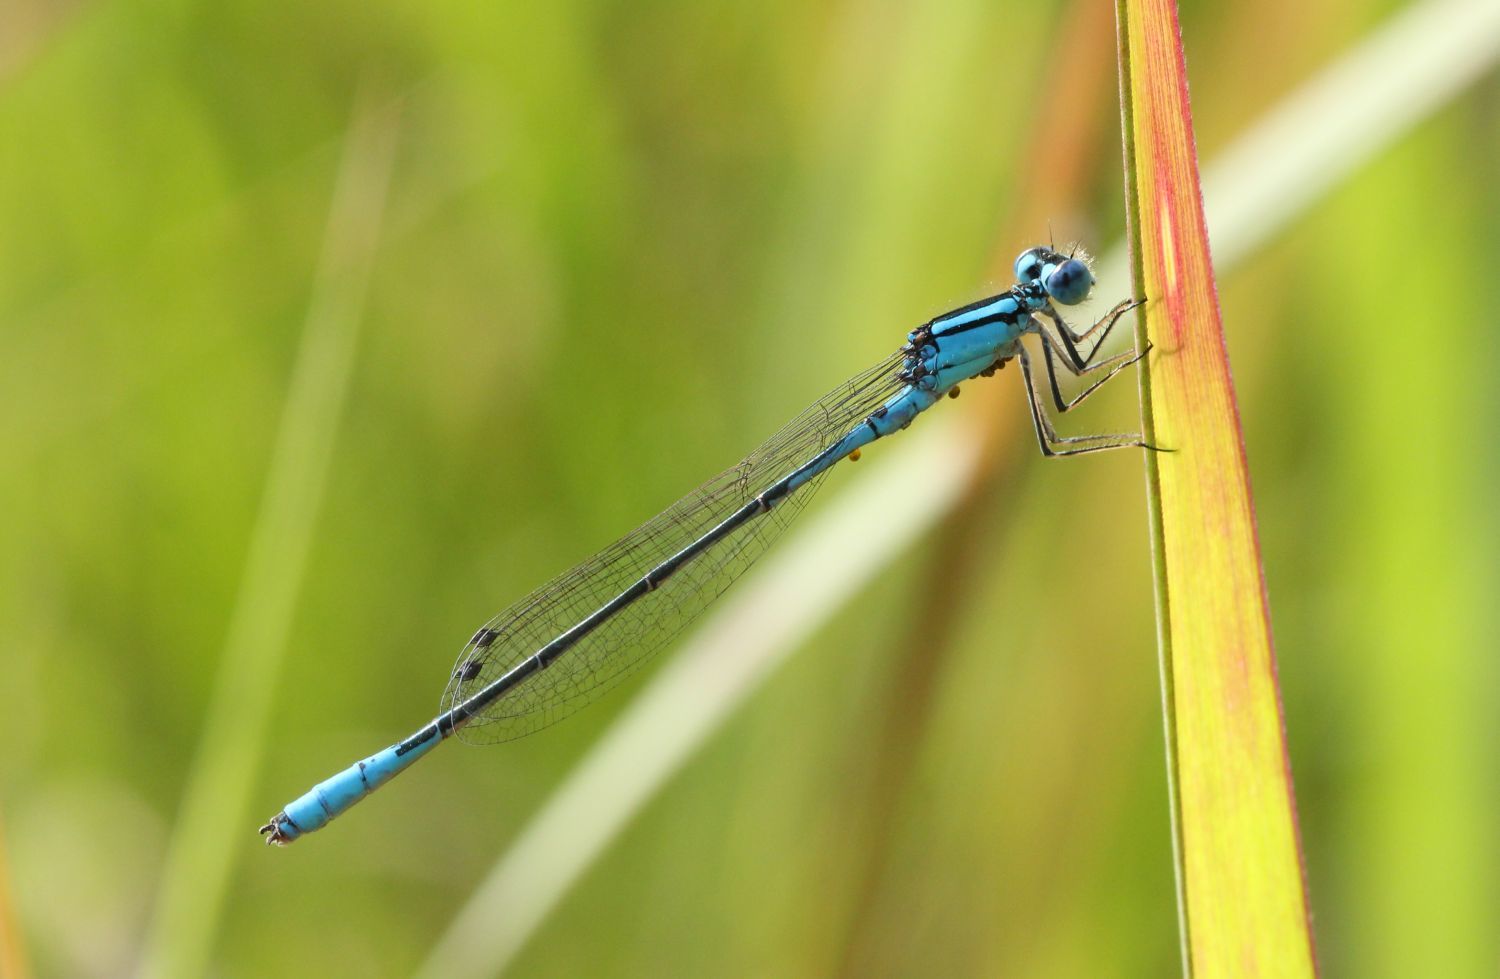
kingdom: Animalia
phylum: Arthropoda
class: Insecta
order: Odonata
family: Coenagrionidae
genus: Enallagma
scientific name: Enallagma aspersum
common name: Azure bluet
